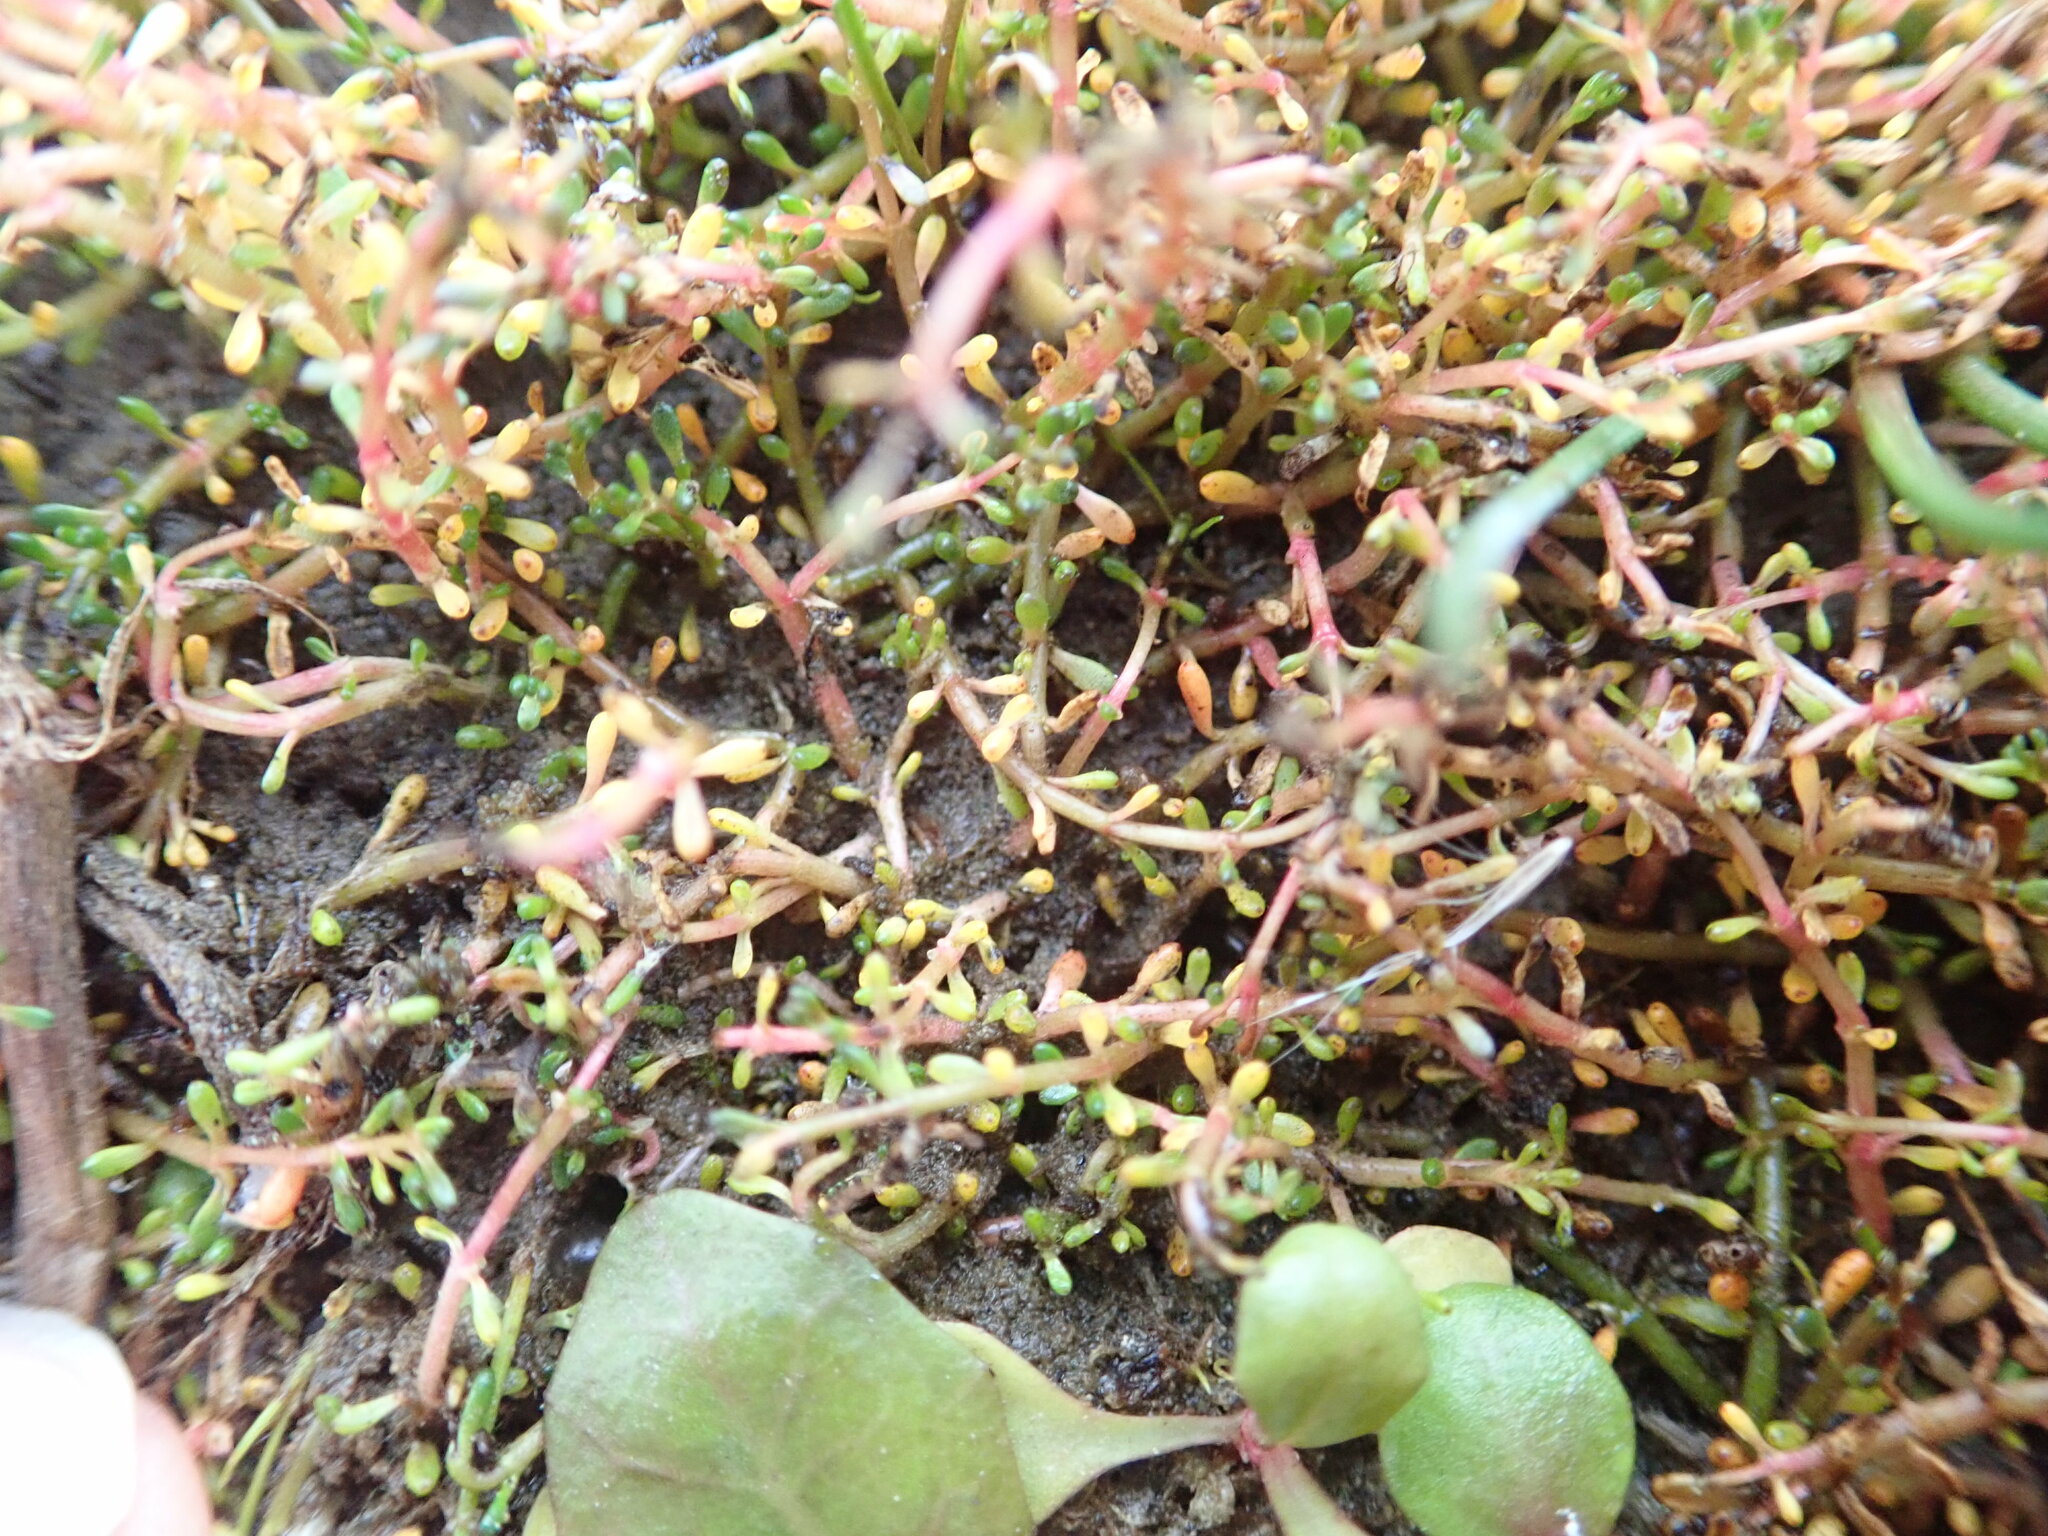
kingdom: Plantae
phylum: Tracheophyta
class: Magnoliopsida
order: Saxifragales
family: Haloragaceae
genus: Myriophyllum
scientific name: Myriophyllum votschii
